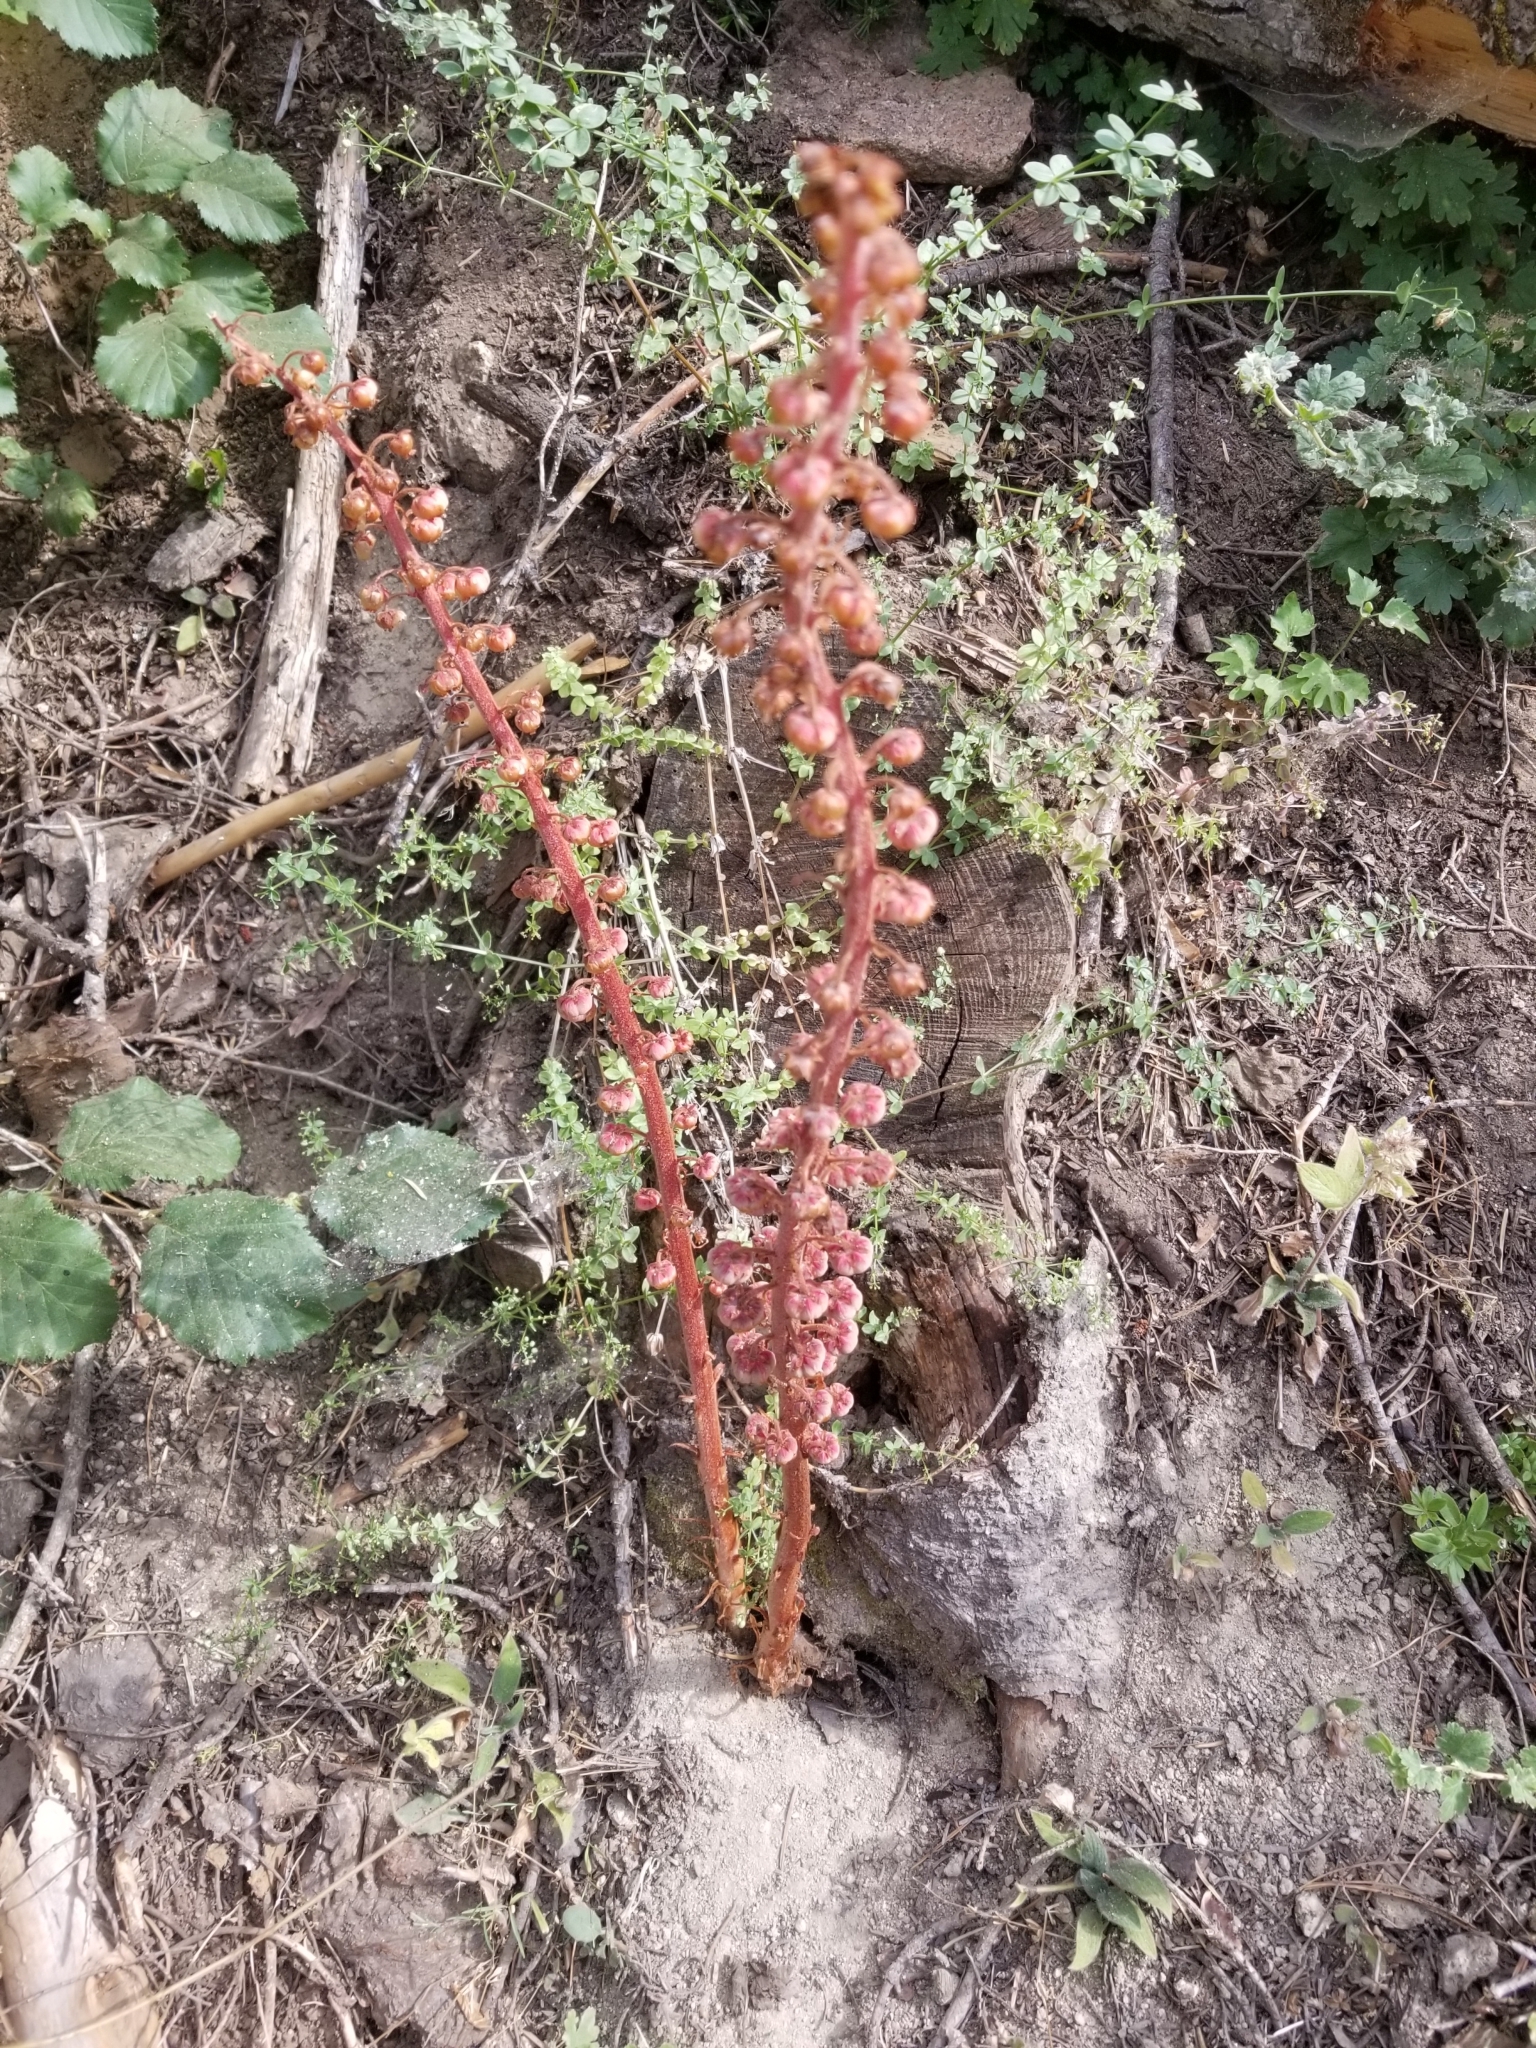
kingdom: Plantae
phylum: Tracheophyta
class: Magnoliopsida
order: Ericales
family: Ericaceae
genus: Pterospora
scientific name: Pterospora andromedea
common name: Giant bird's-nest
